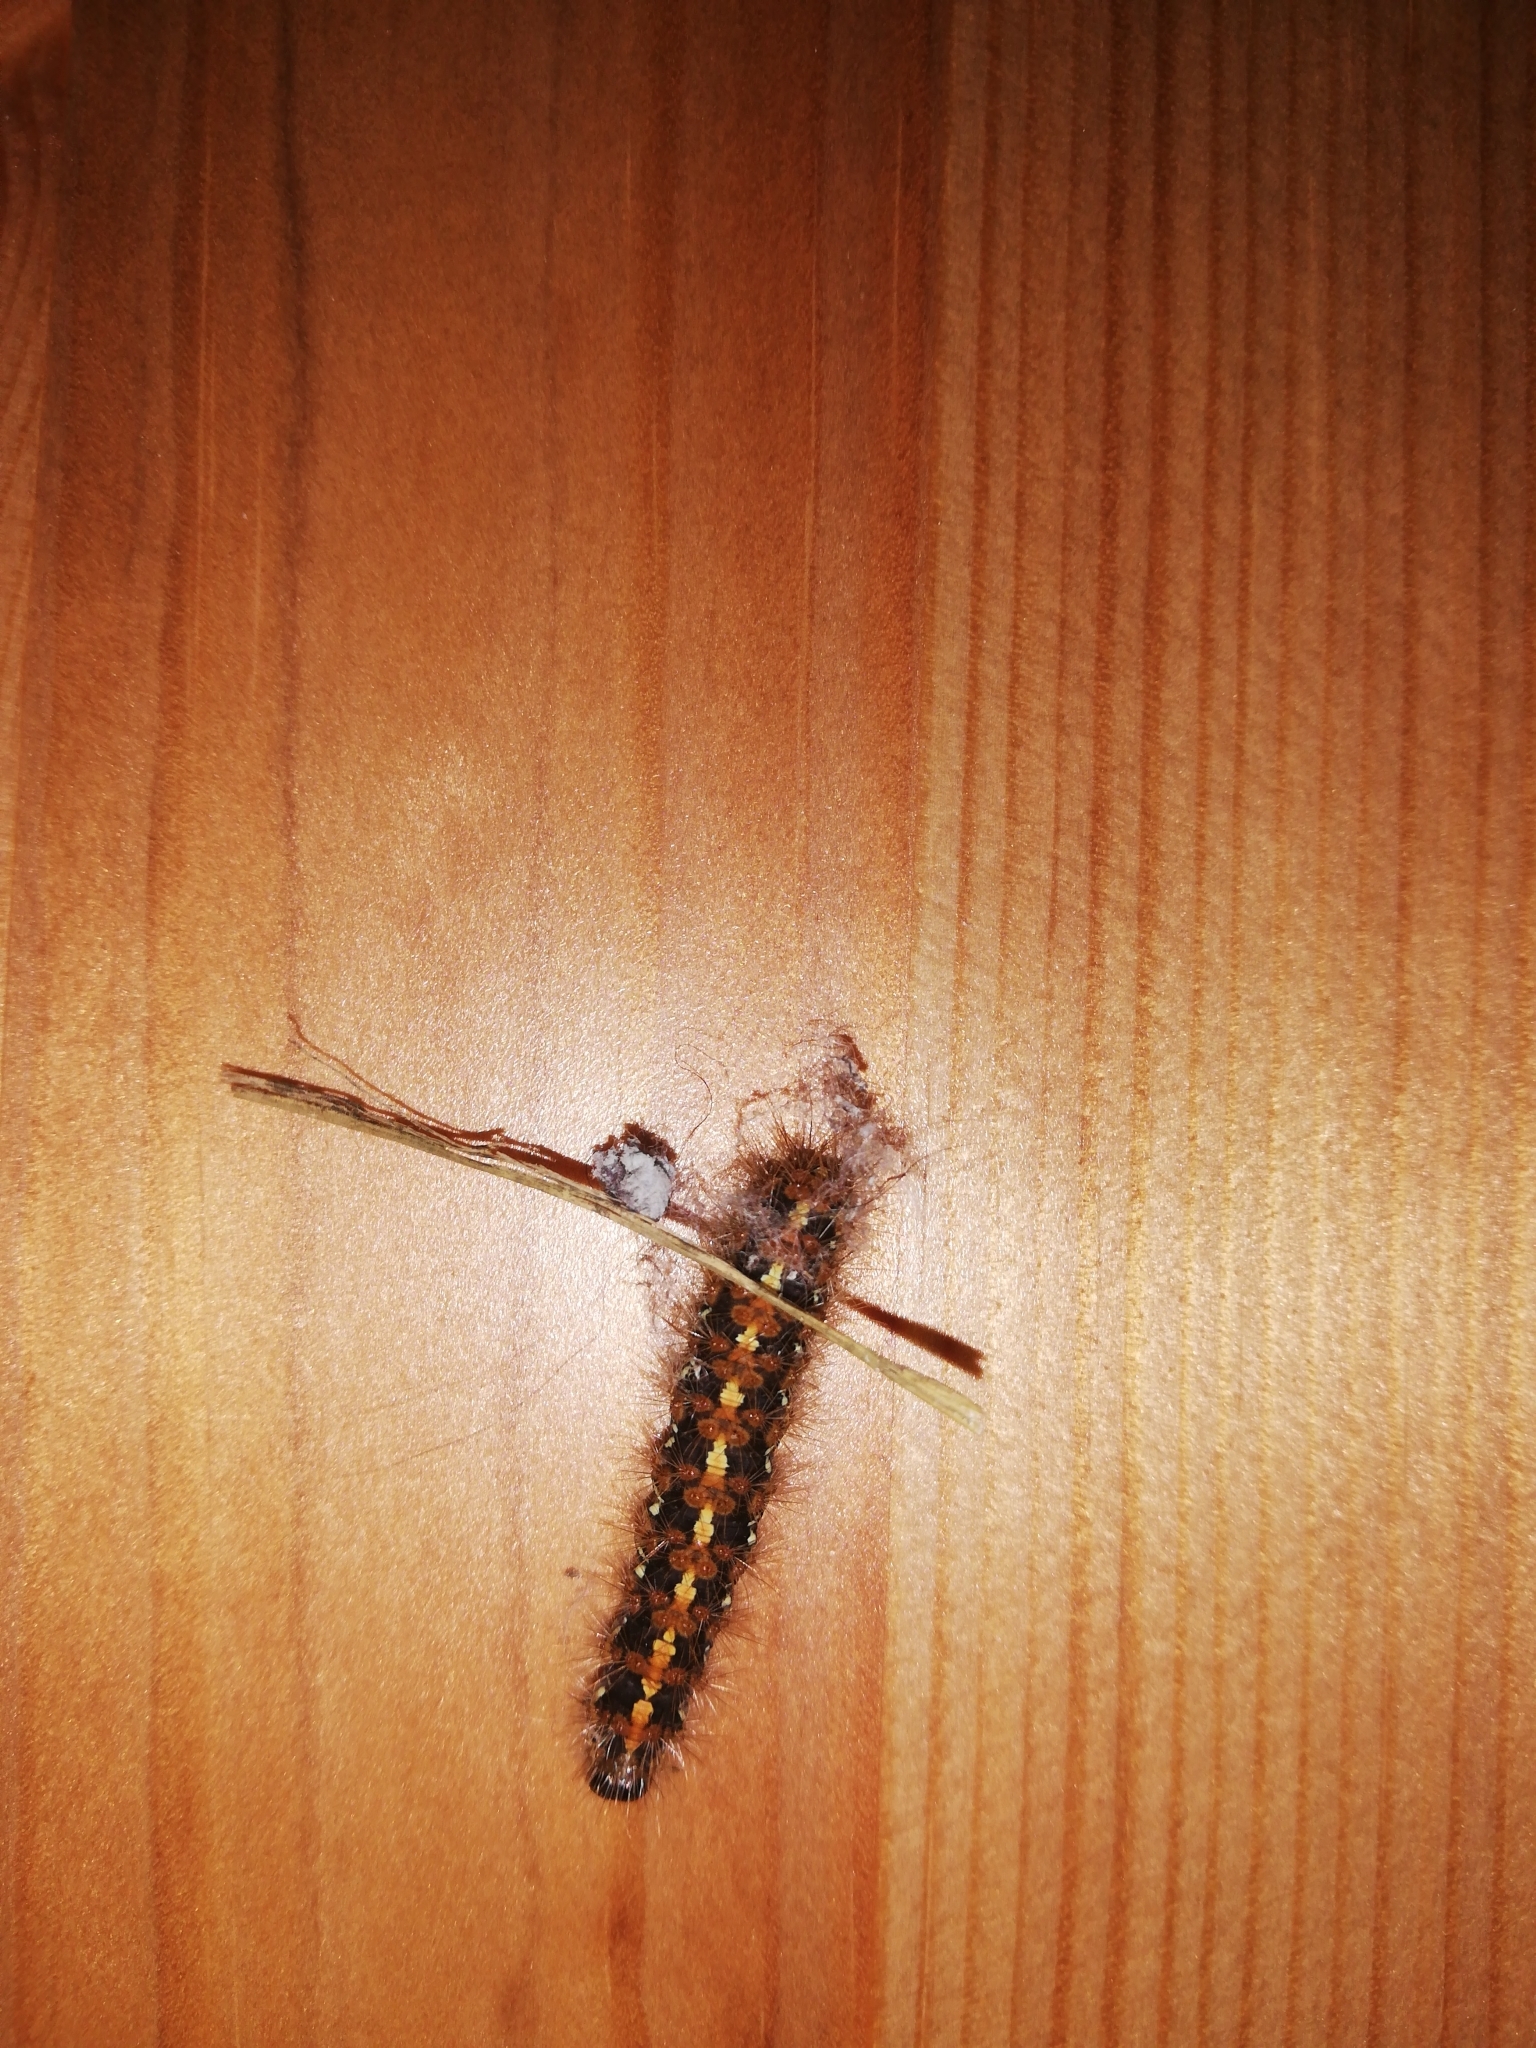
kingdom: Animalia
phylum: Arthropoda
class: Insecta
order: Lepidoptera
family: Erebidae
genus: Euplagia
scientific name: Euplagia quadripunctaria
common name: Jersey tiger
